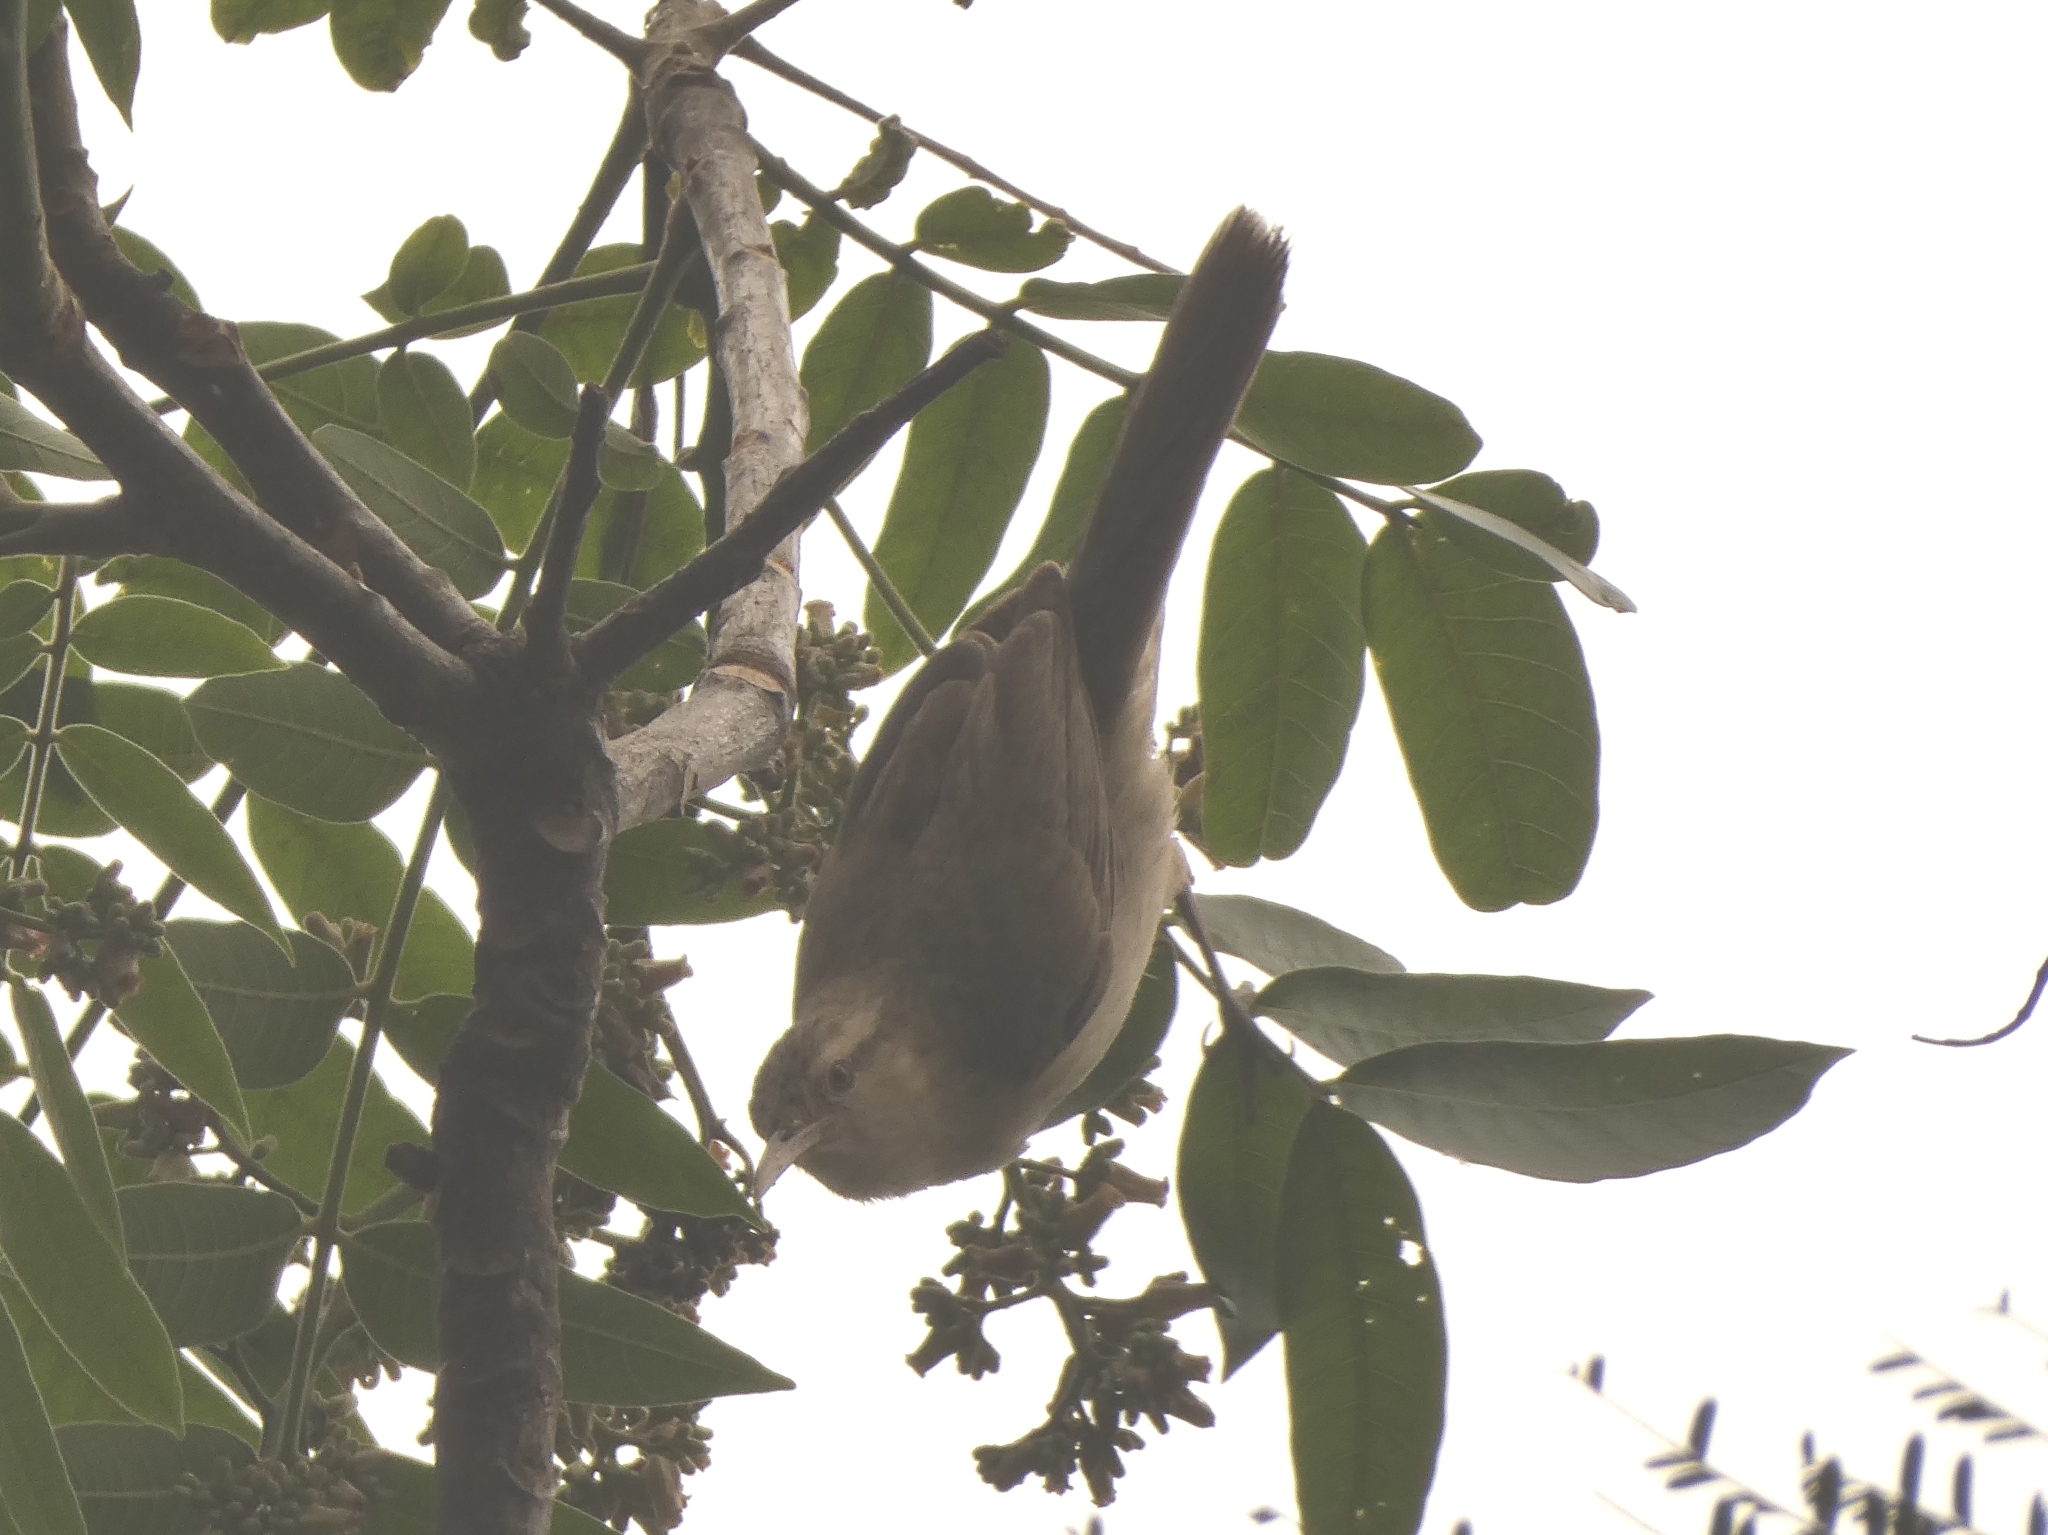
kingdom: Animalia
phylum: Chordata
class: Aves
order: Passeriformes
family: Troglodytidae
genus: Campylorhynchus
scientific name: Campylorhynchus turdinus
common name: Thrush-like wren
